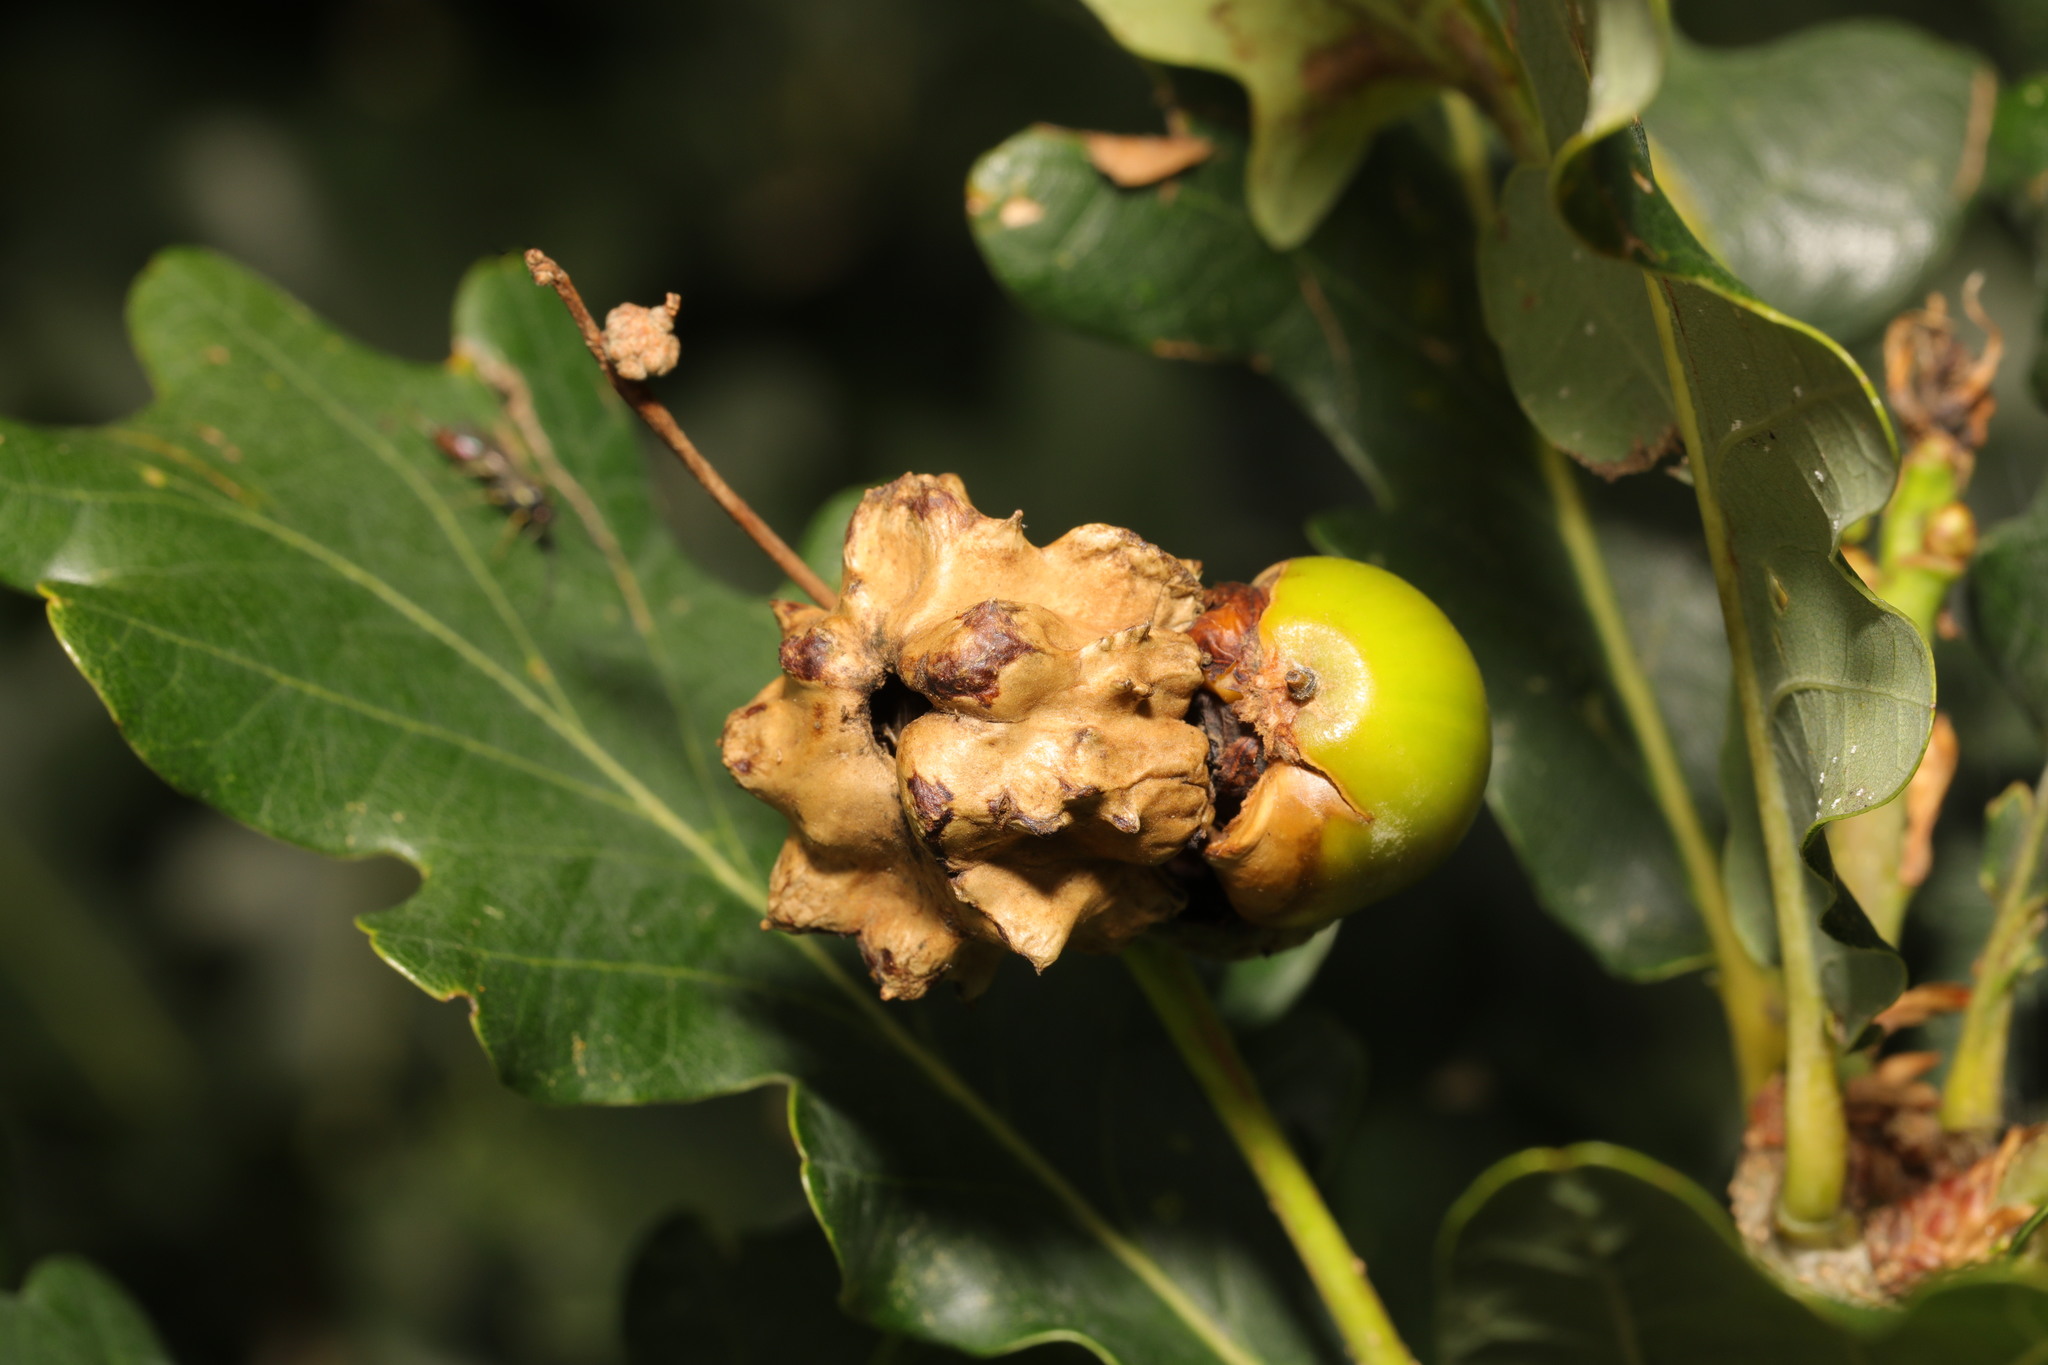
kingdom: Animalia
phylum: Arthropoda
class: Insecta
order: Hymenoptera
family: Cynipidae
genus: Andricus
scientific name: Andricus quercuscalicis
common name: Knopper gall
